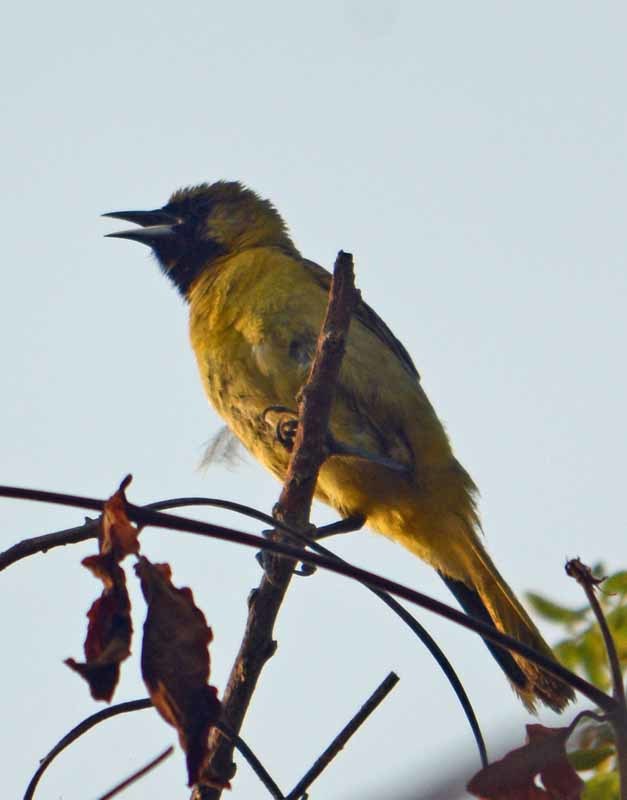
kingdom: Animalia
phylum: Chordata
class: Aves
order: Passeriformes
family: Icteridae
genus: Icterus
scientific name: Icterus cucullatus
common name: Hooded oriole
